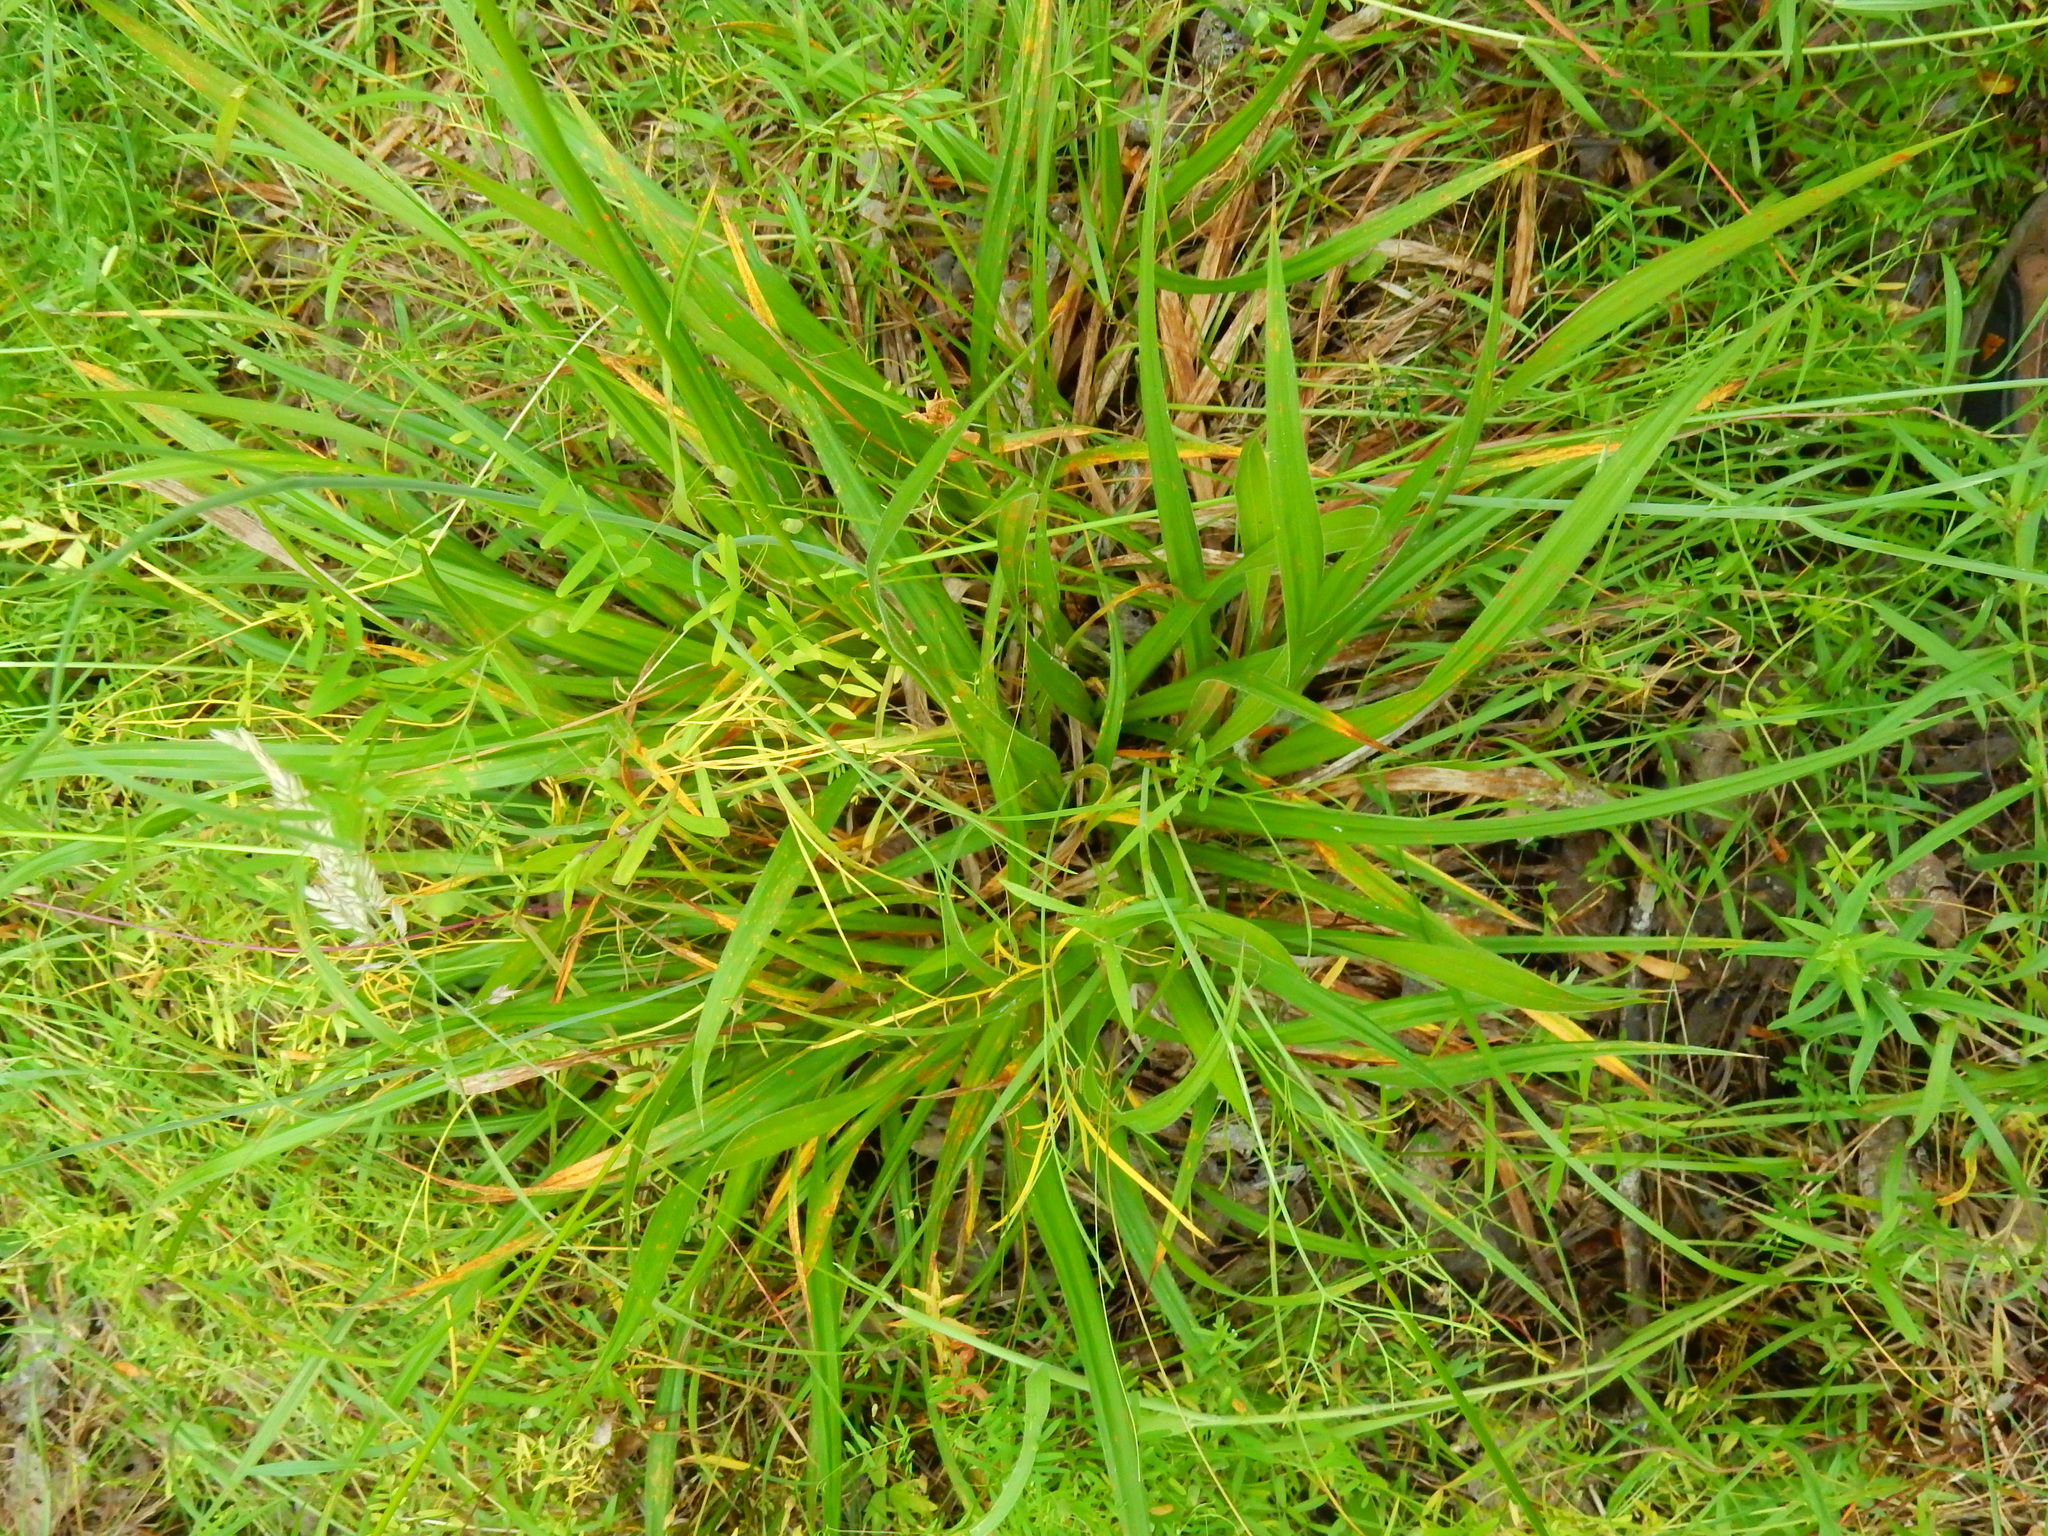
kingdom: Plantae
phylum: Tracheophyta
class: Liliopsida
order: Poales
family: Cyperaceae
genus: Carex
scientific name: Carex gynodynama
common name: Olney's hairy sedge
